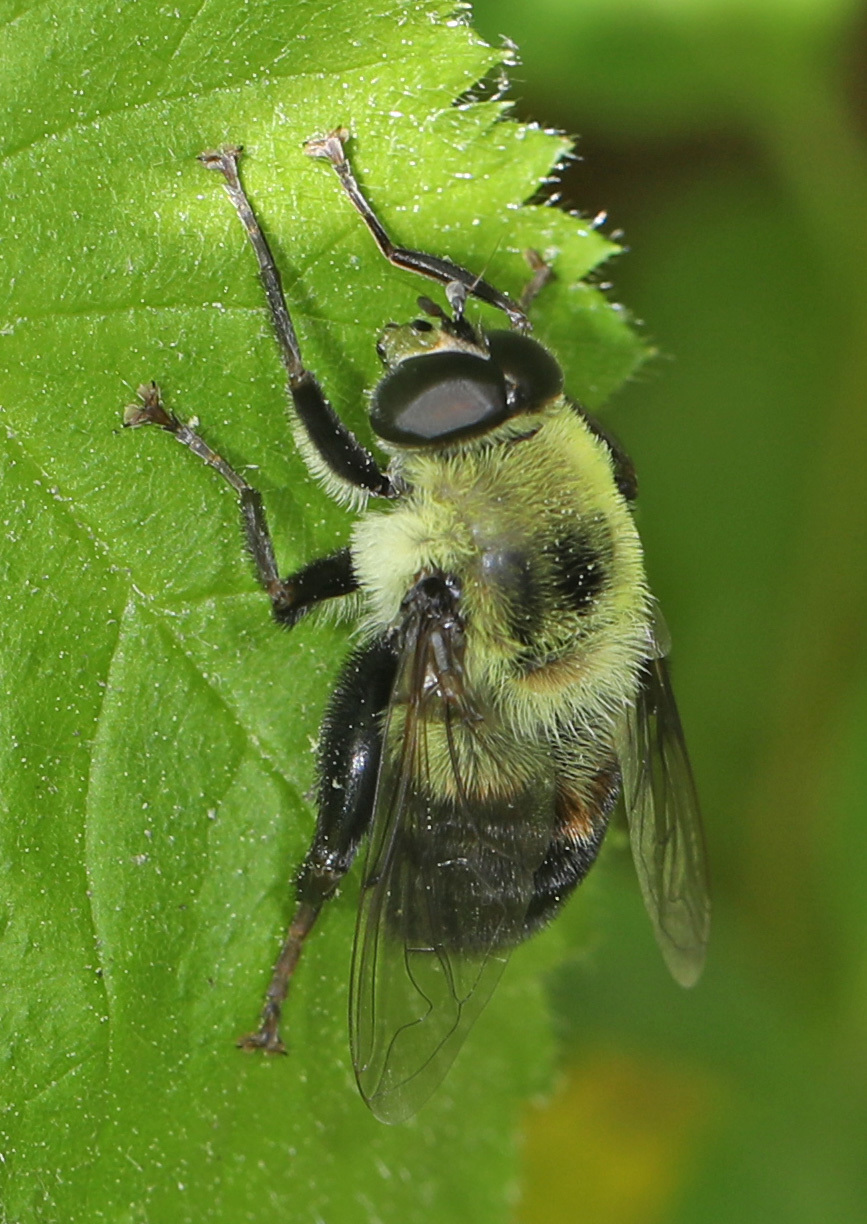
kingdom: Animalia
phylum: Arthropoda
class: Insecta
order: Diptera
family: Syrphidae
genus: Imatisma
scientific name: Imatisma posticata
